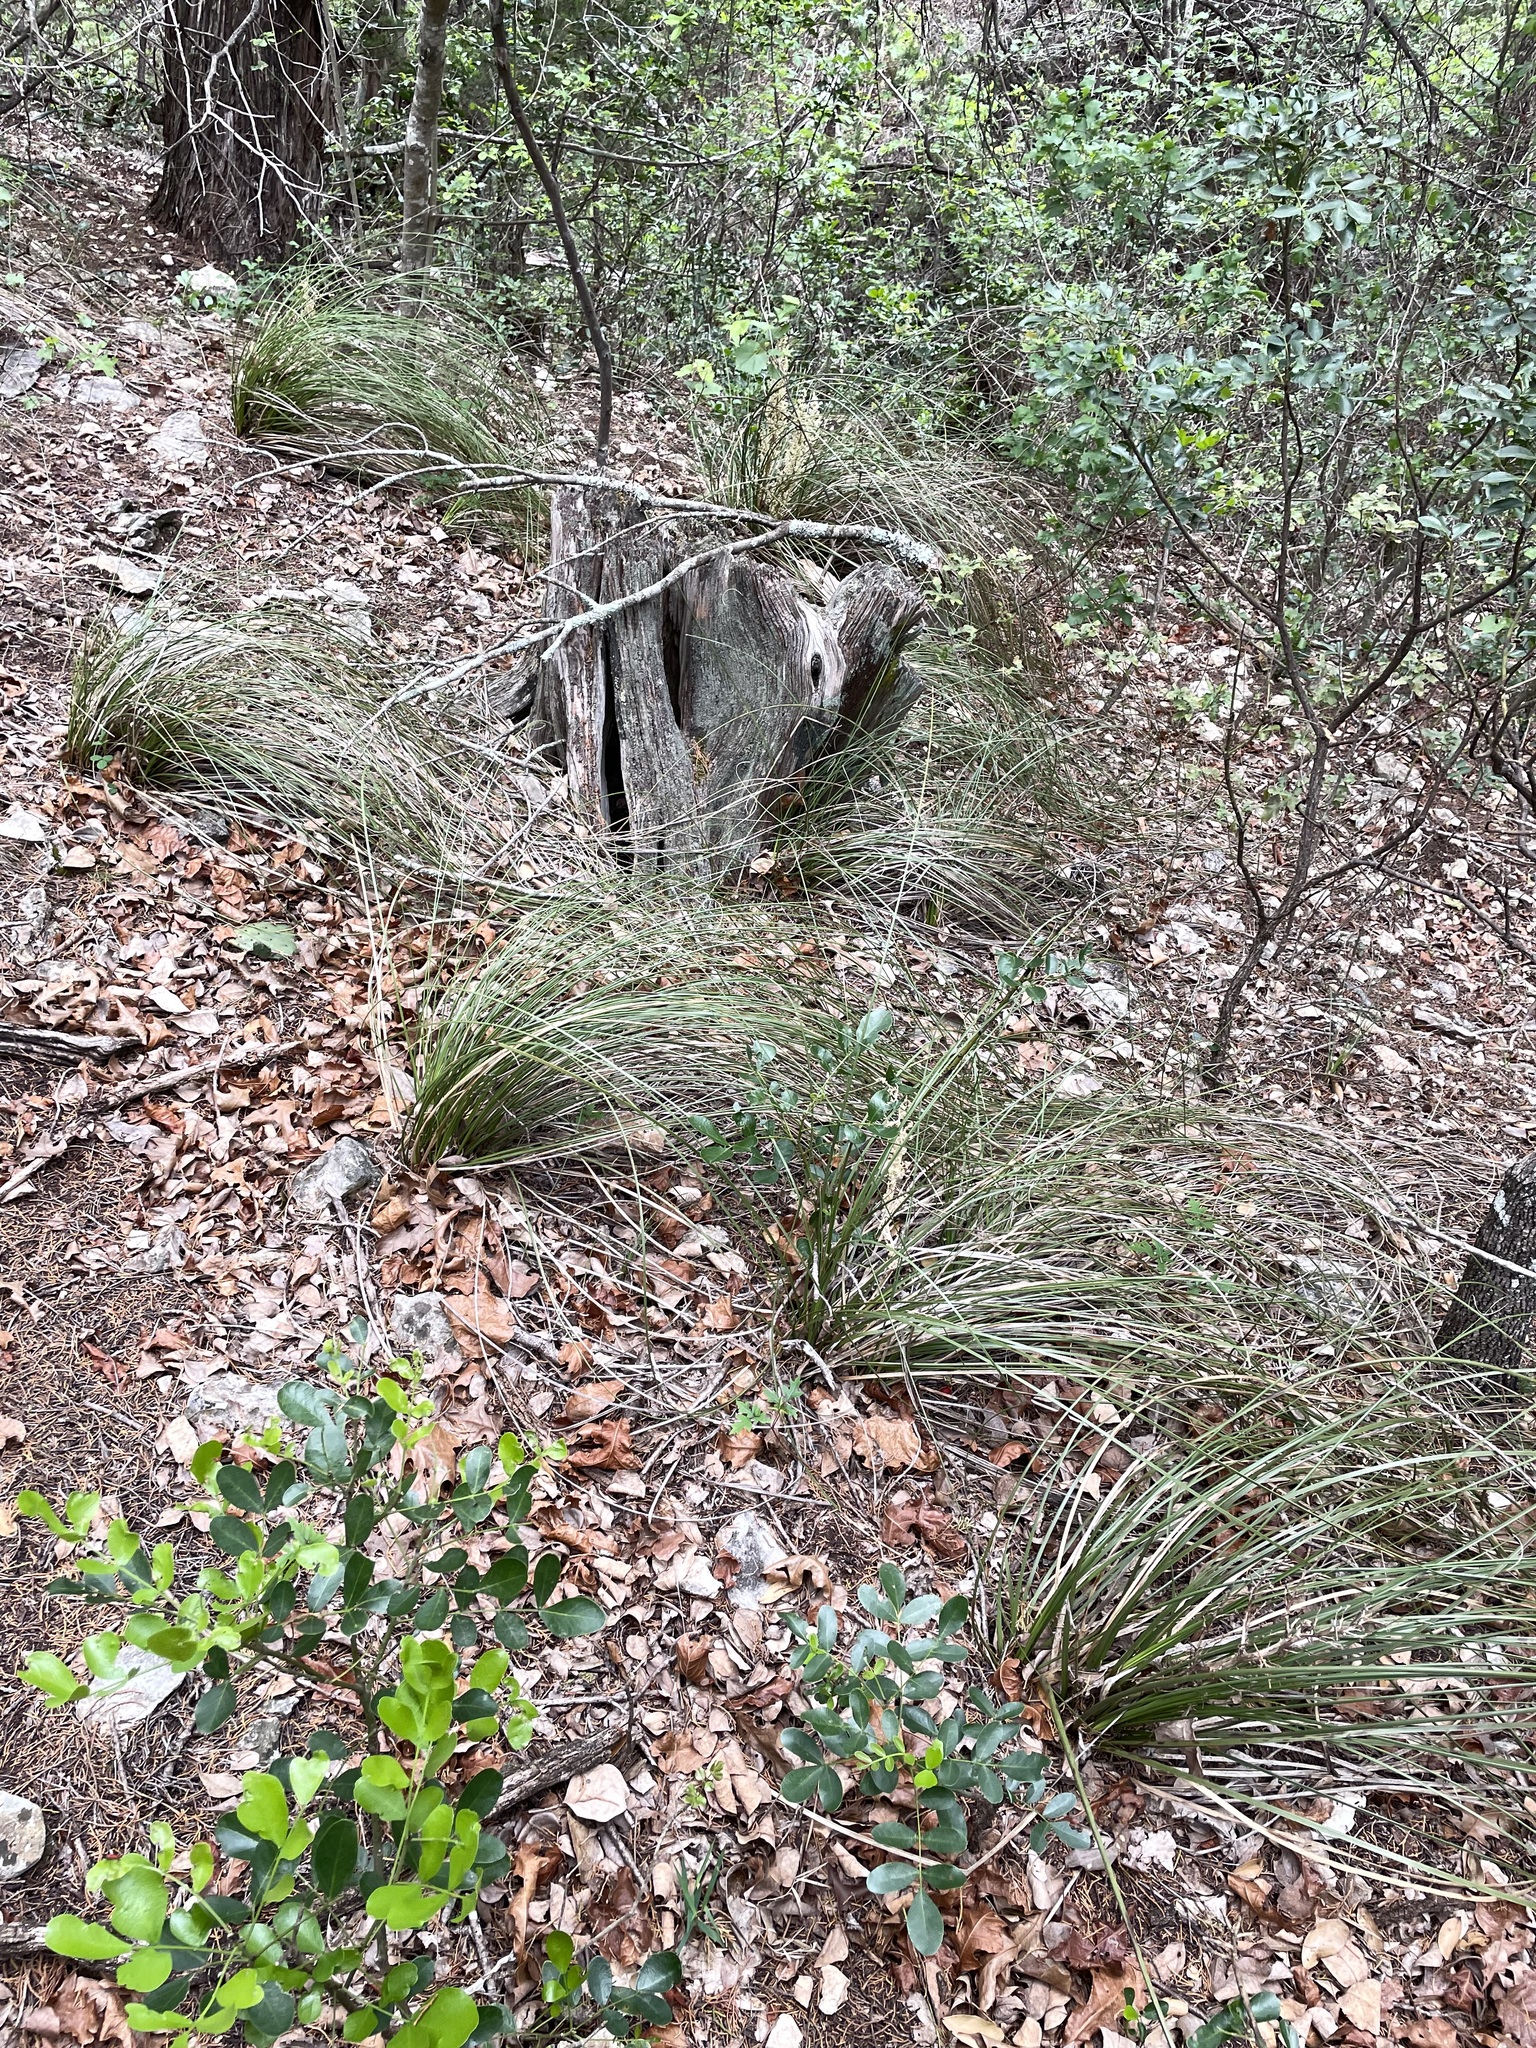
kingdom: Plantae
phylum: Tracheophyta
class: Liliopsida
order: Asparagales
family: Asparagaceae
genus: Nolina
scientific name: Nolina texana
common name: Texas sacahuiste
